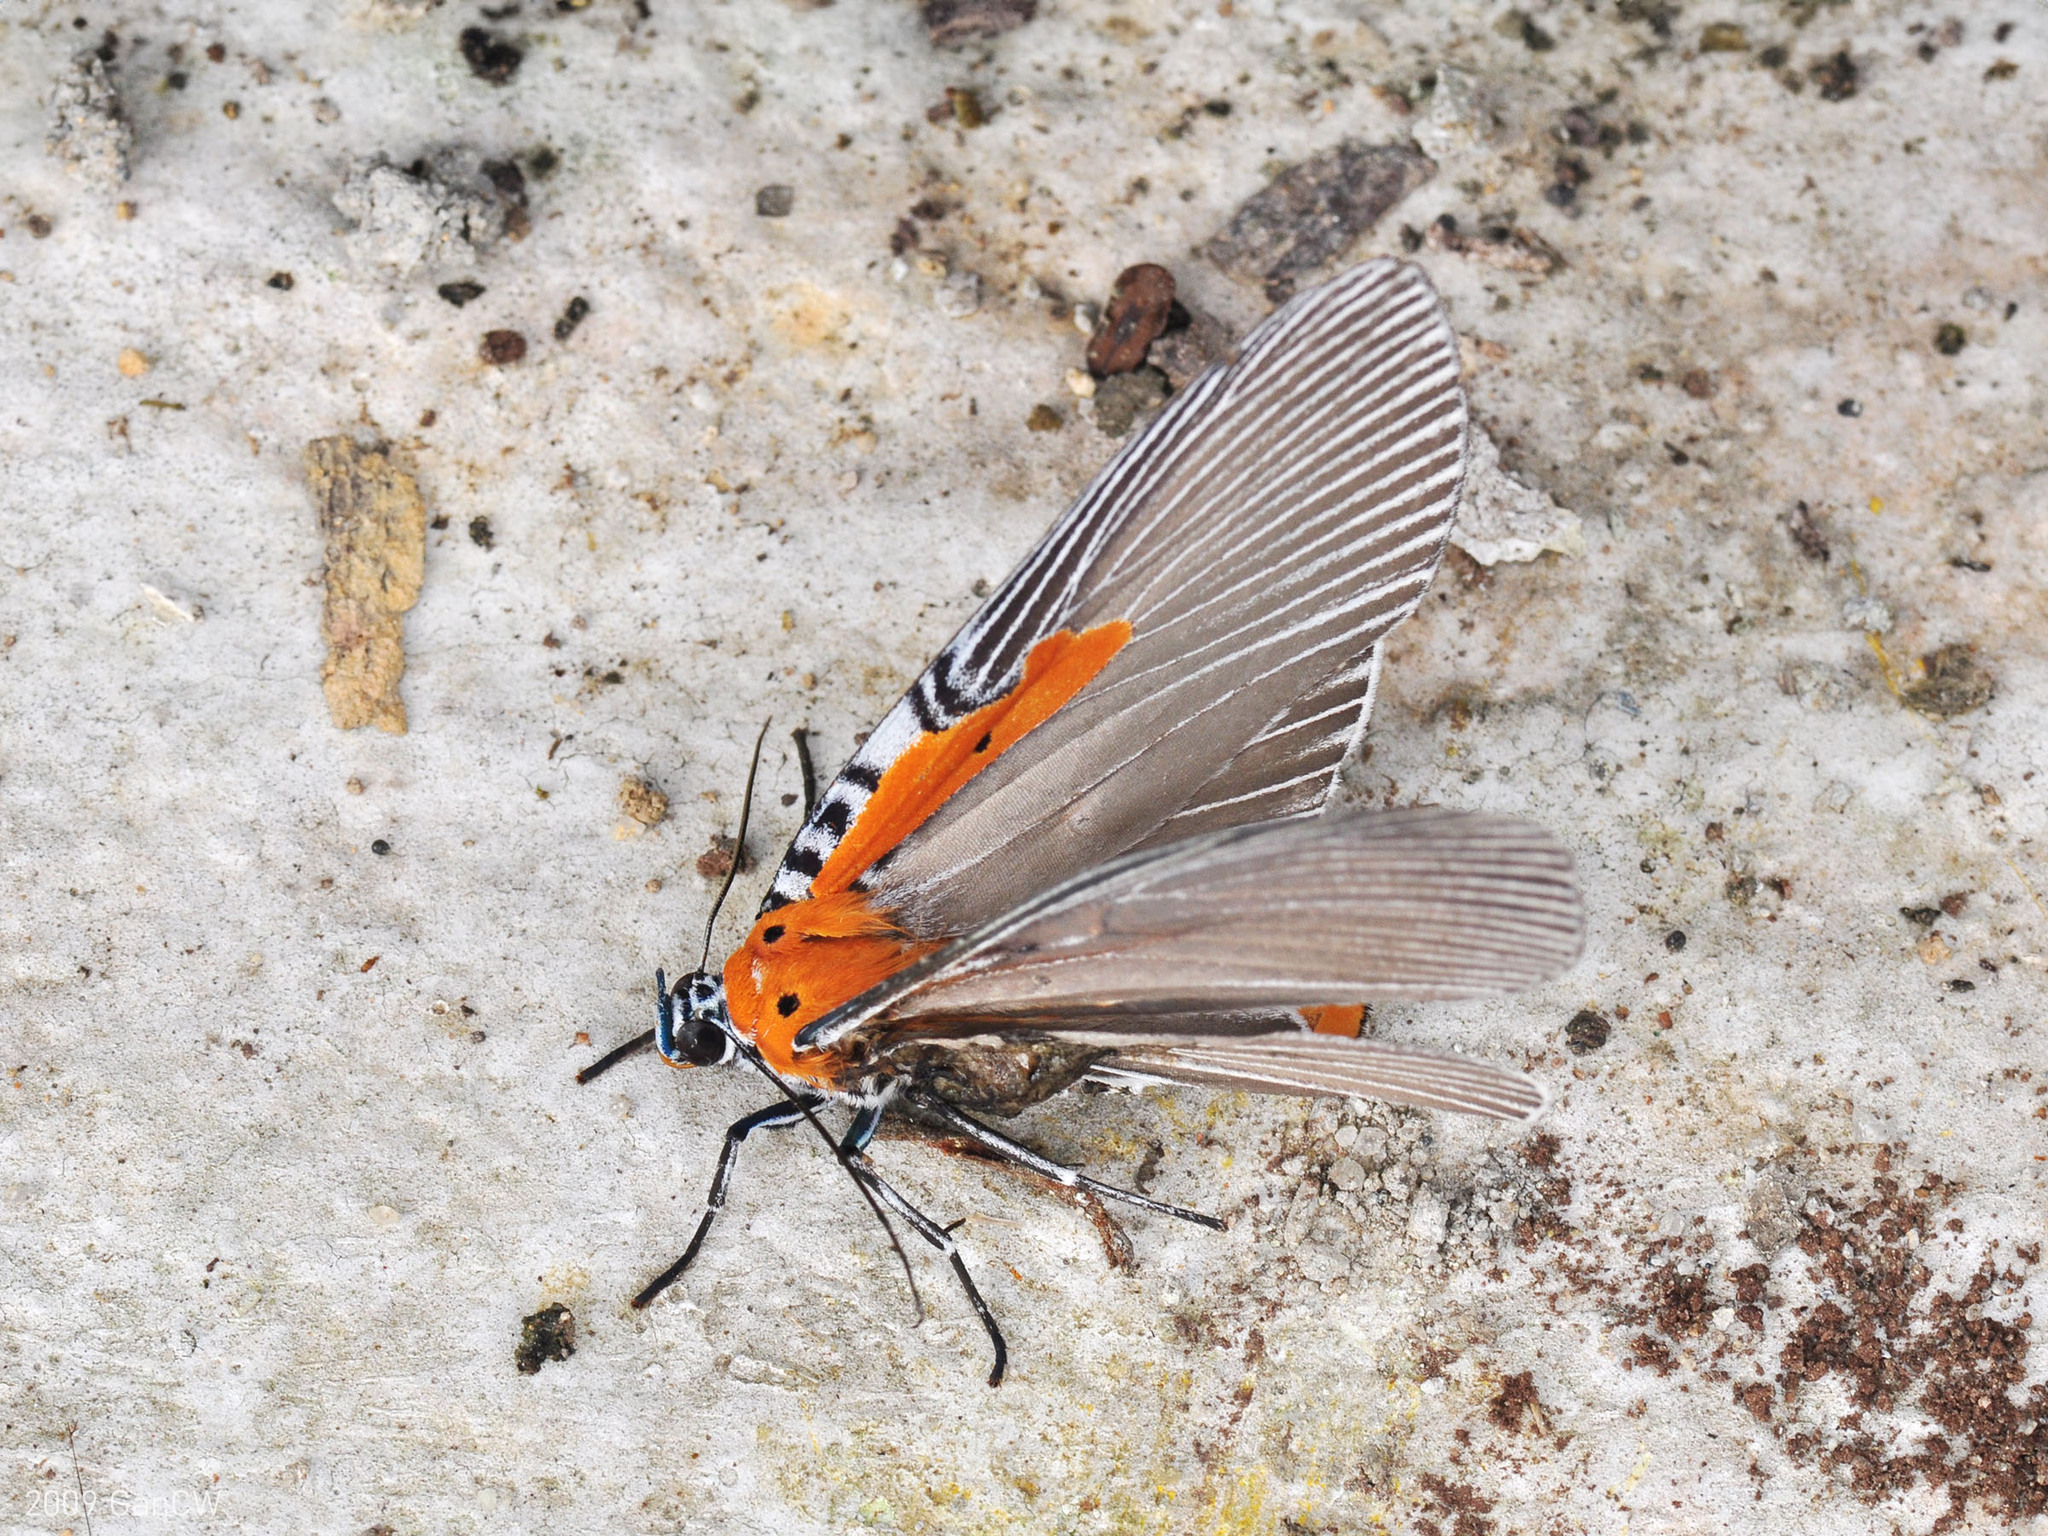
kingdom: Animalia
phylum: Arthropoda
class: Insecta
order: Lepidoptera
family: Erebidae
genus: Euplocia
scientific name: Euplocia membliaria
